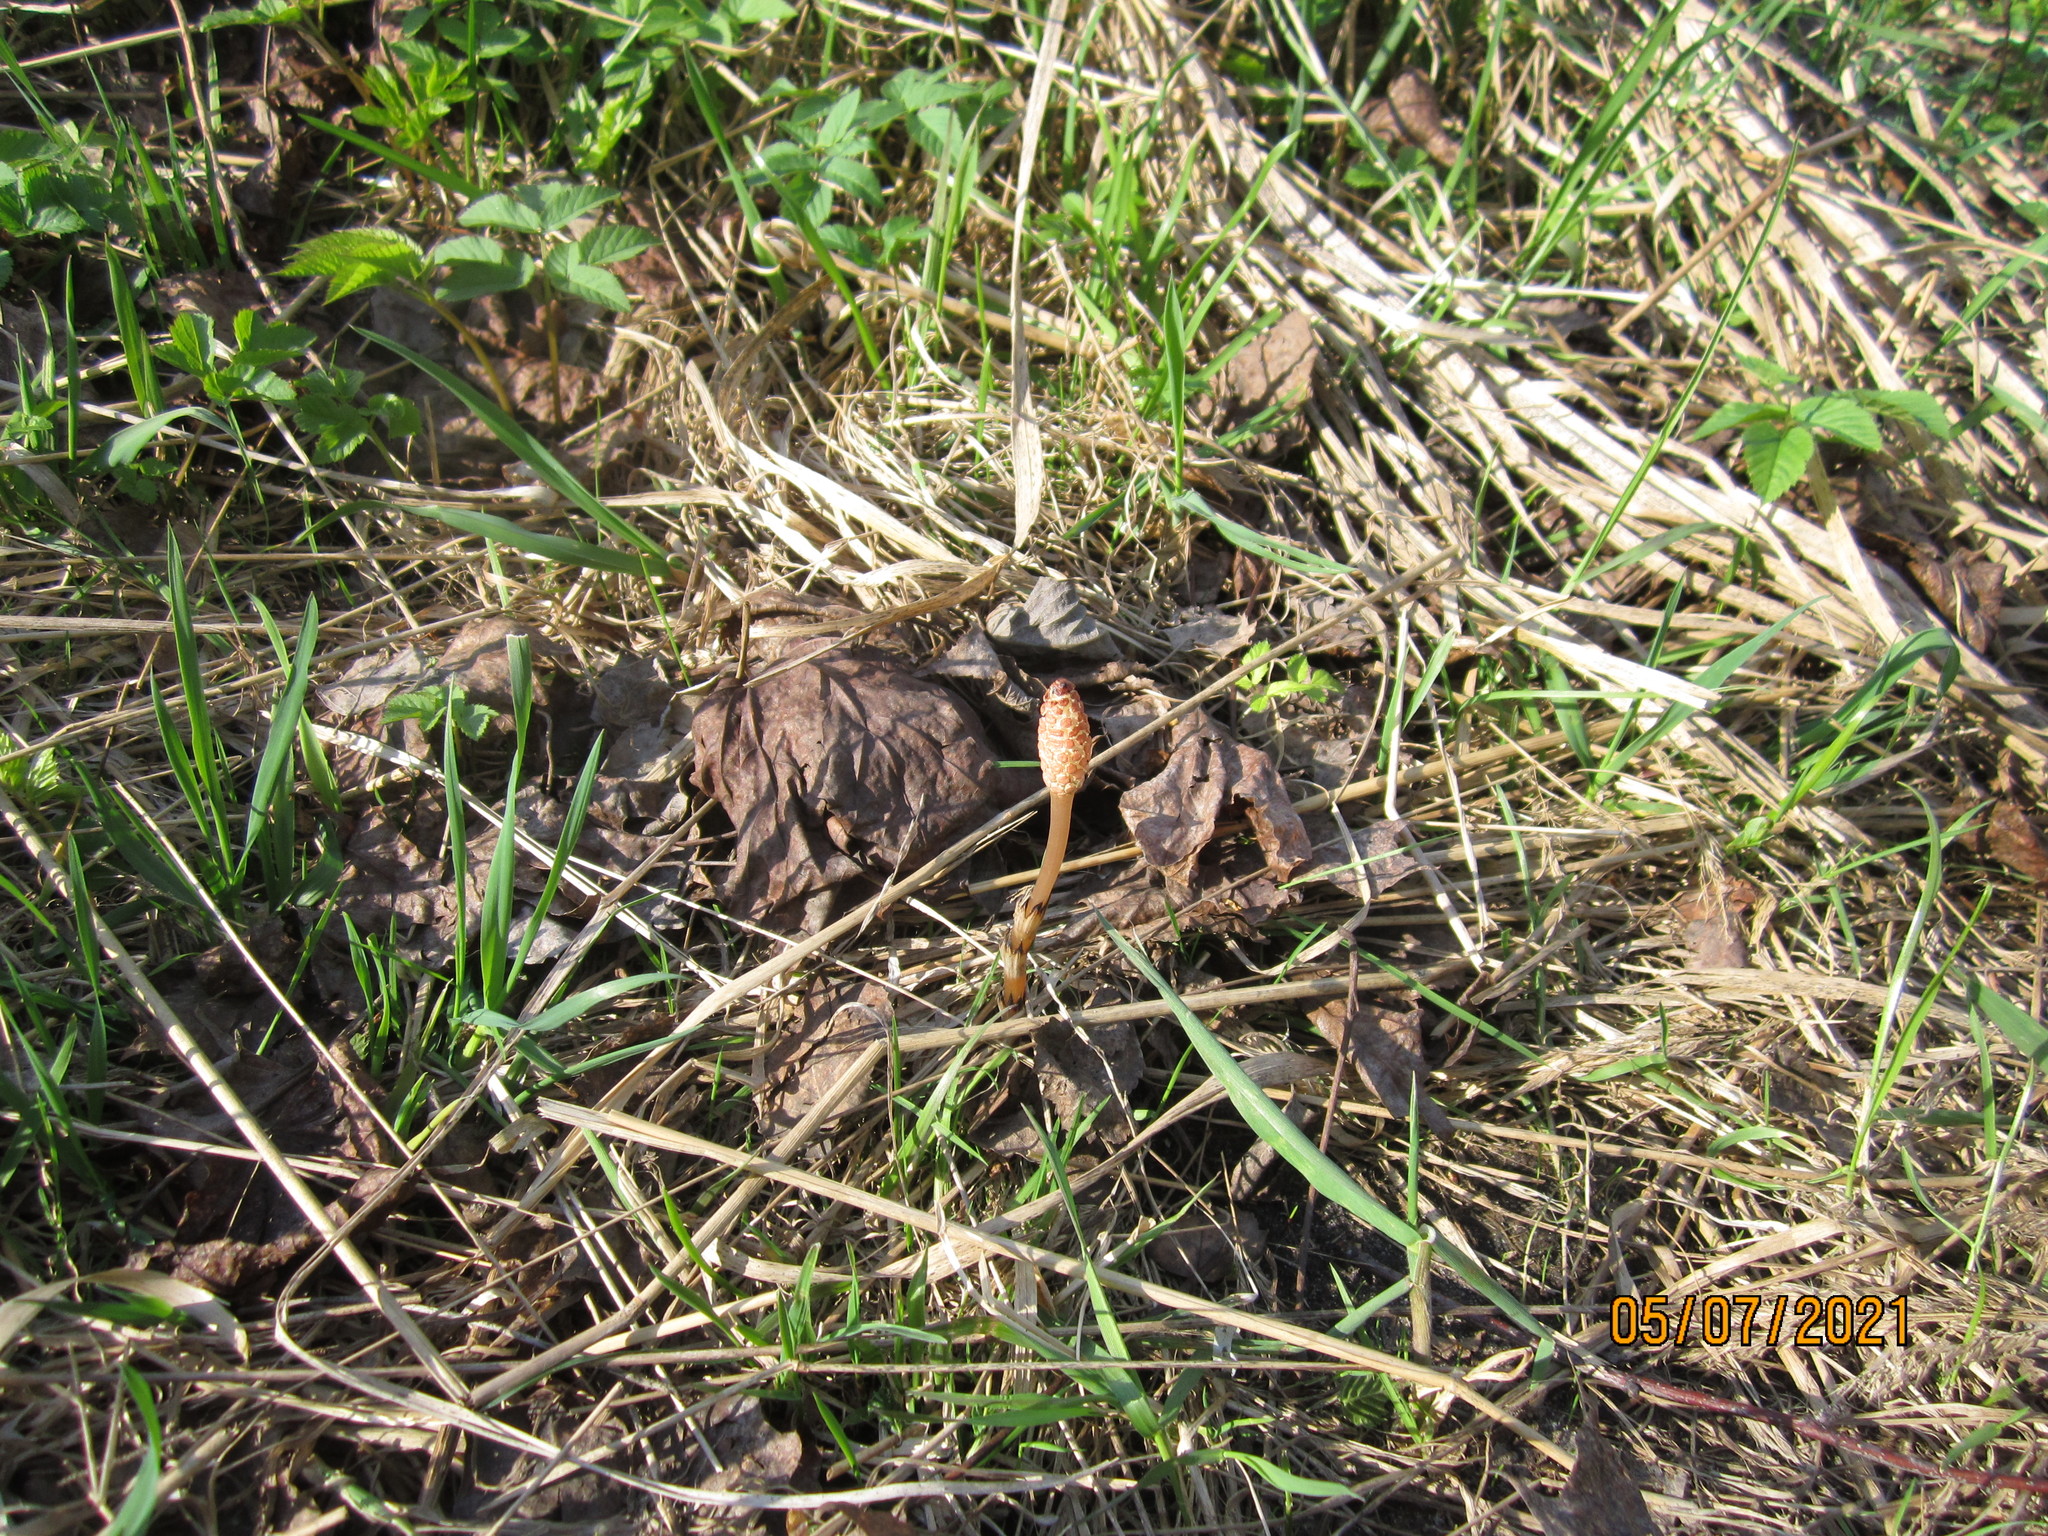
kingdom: Plantae
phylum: Tracheophyta
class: Polypodiopsida
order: Equisetales
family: Equisetaceae
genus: Equisetum
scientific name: Equisetum arvense
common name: Field horsetail
